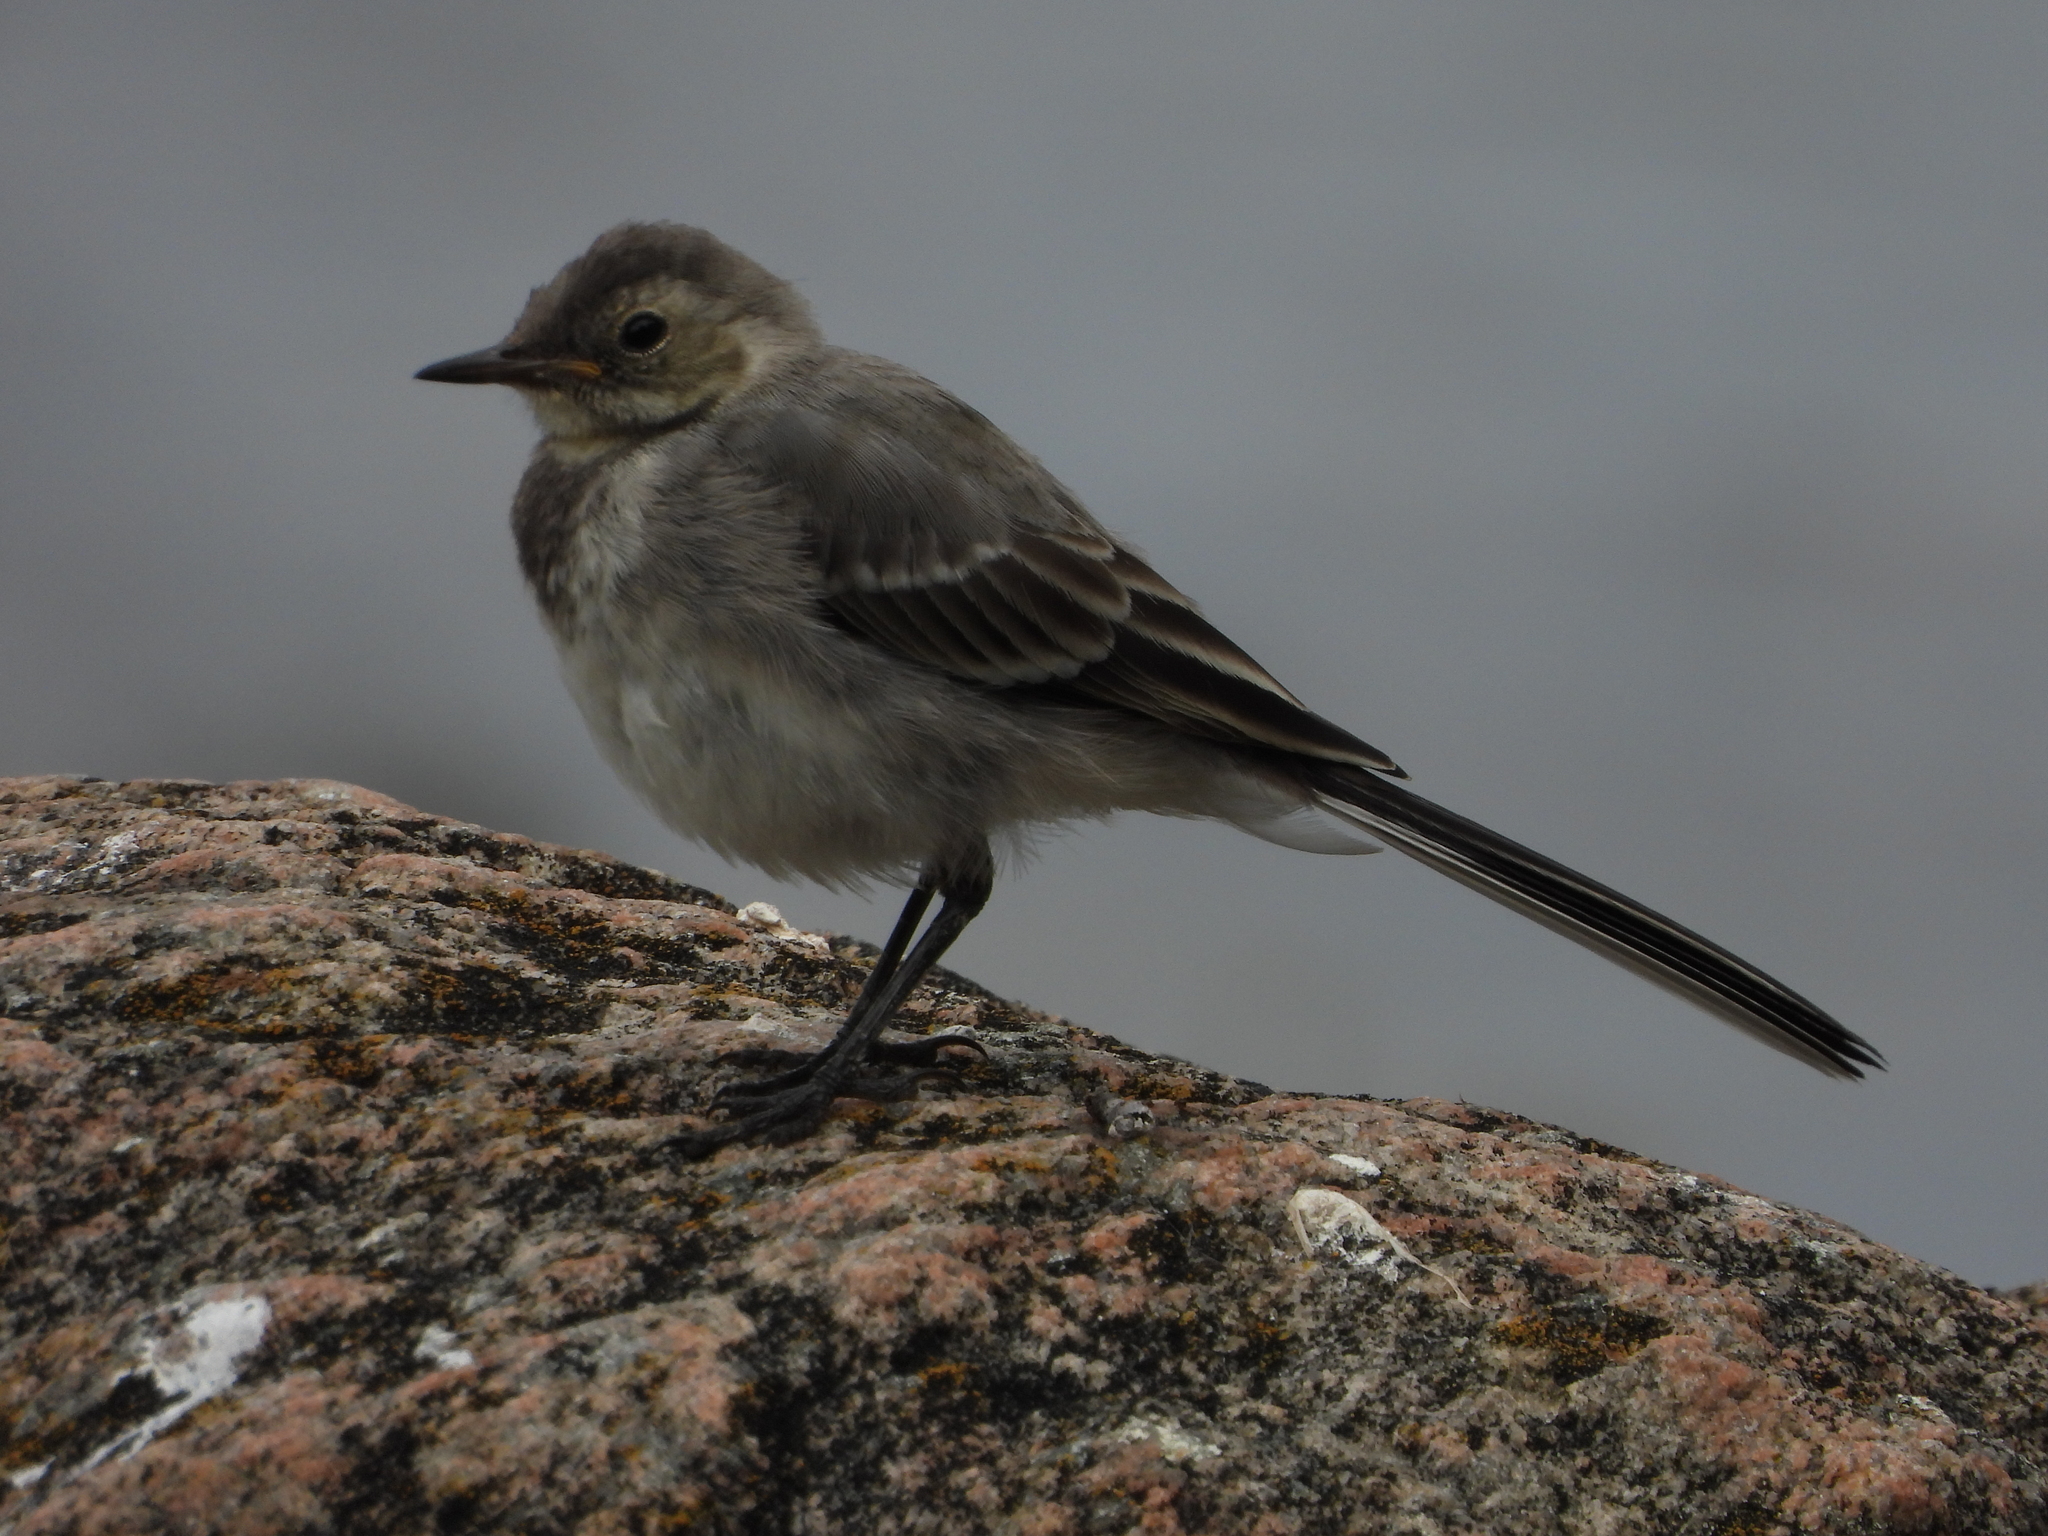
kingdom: Animalia
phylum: Chordata
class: Aves
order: Passeriformes
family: Motacillidae
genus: Motacilla
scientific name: Motacilla alba
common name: White wagtail
